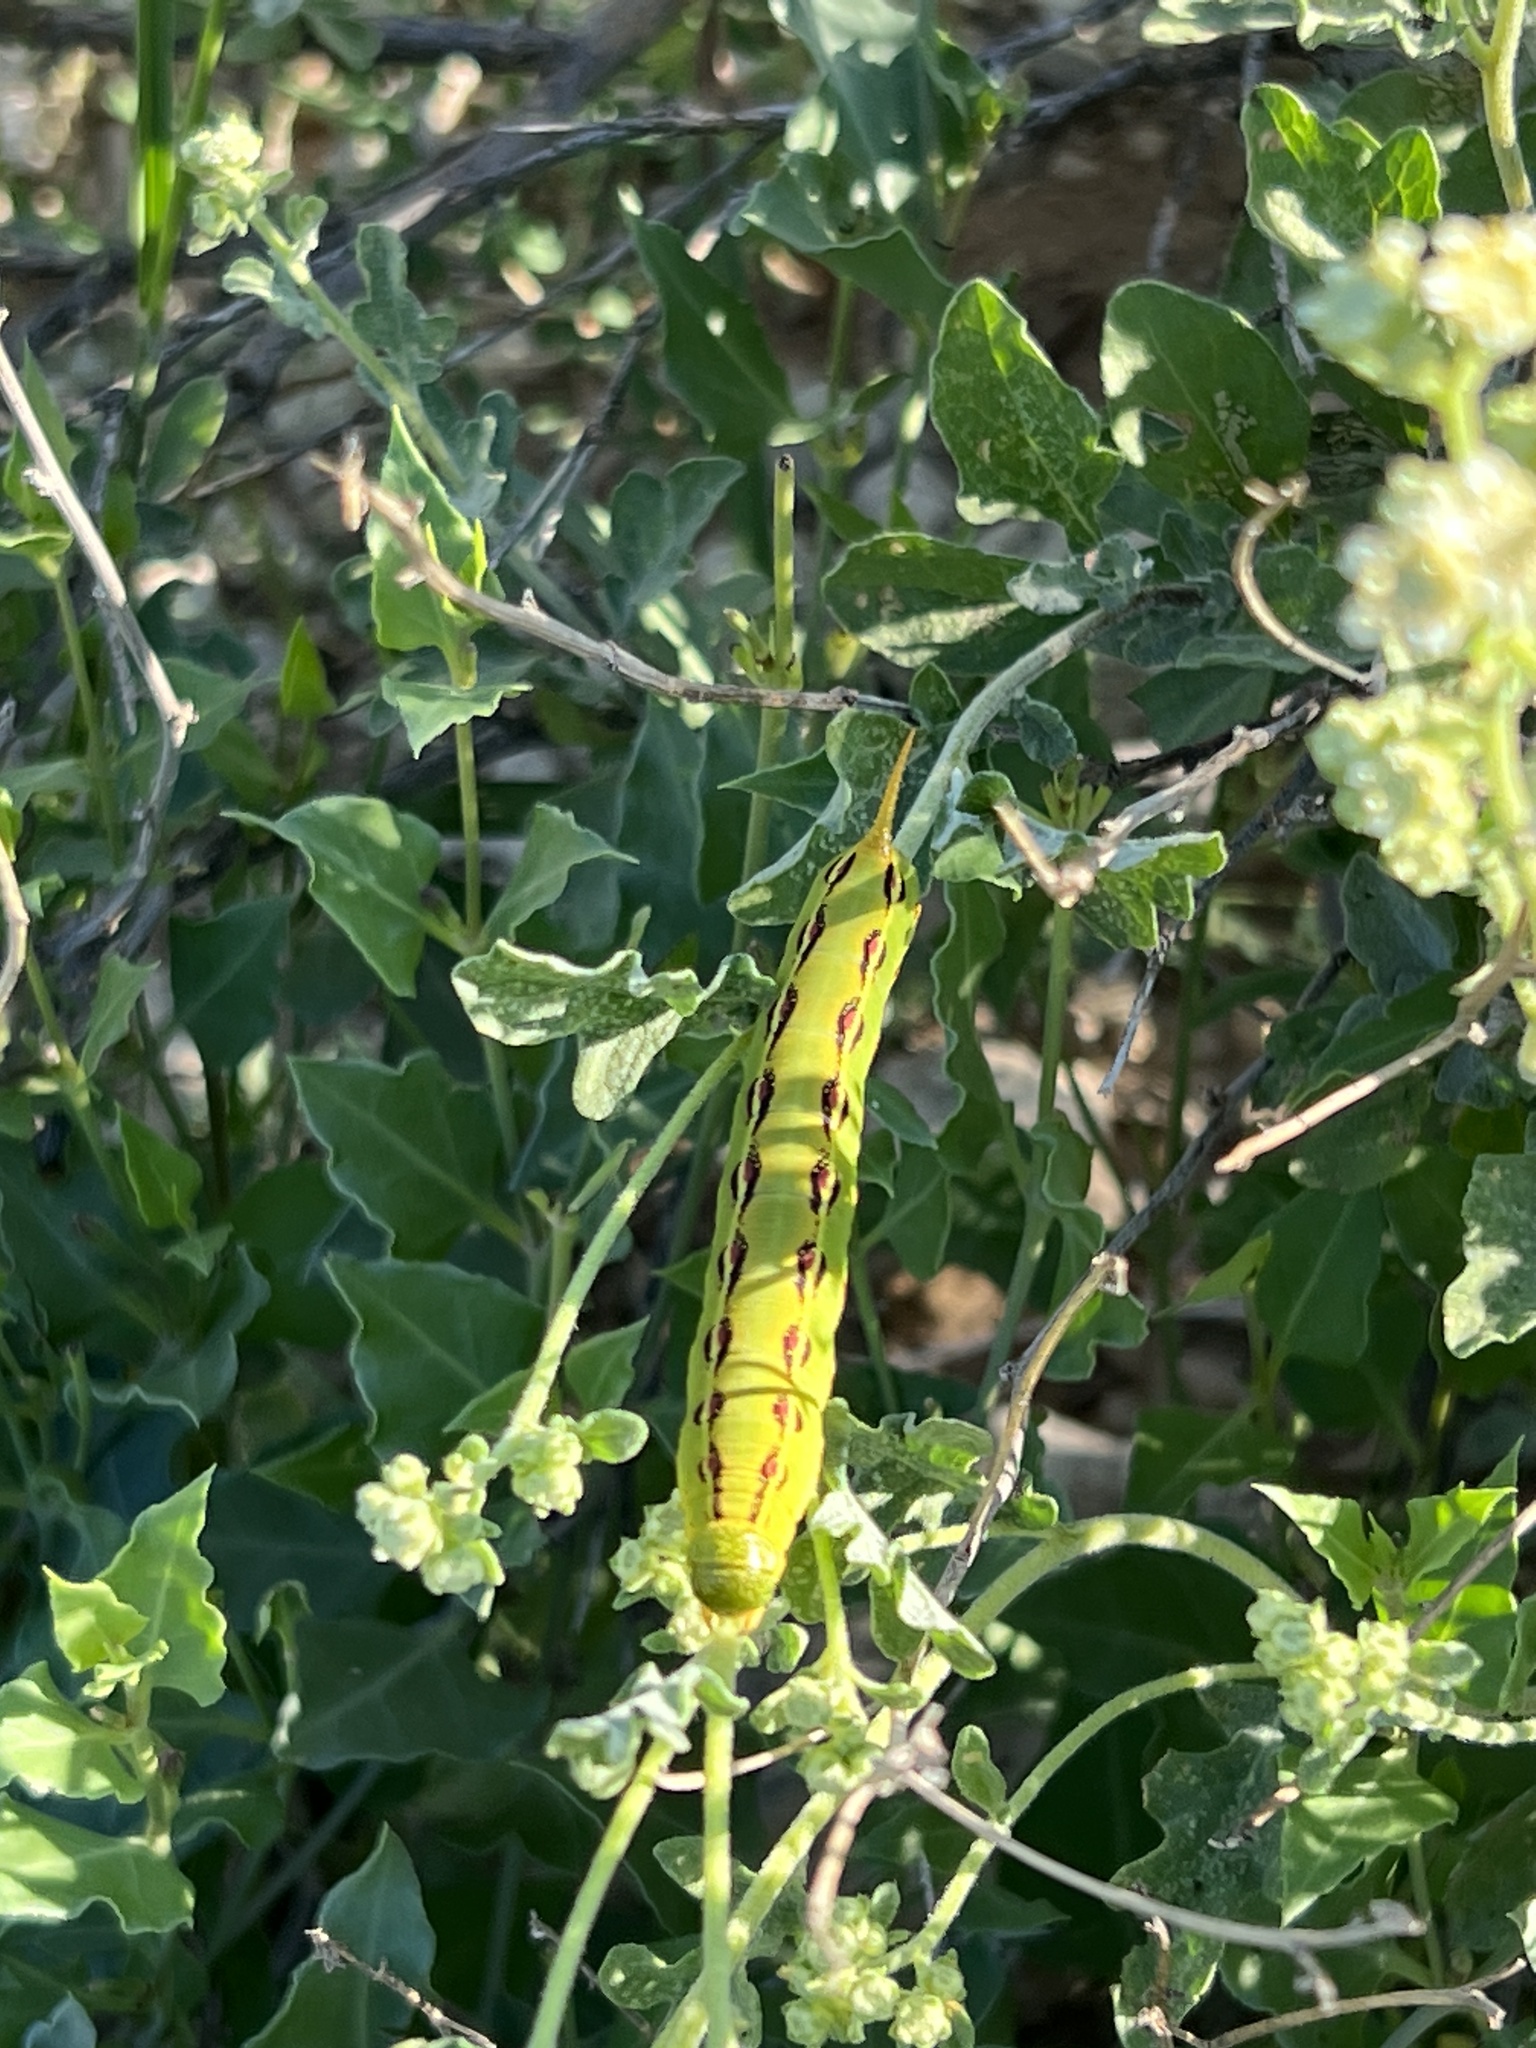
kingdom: Animalia
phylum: Arthropoda
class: Insecta
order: Lepidoptera
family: Sphingidae
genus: Hyles
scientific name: Hyles lineata
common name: White-lined sphinx
